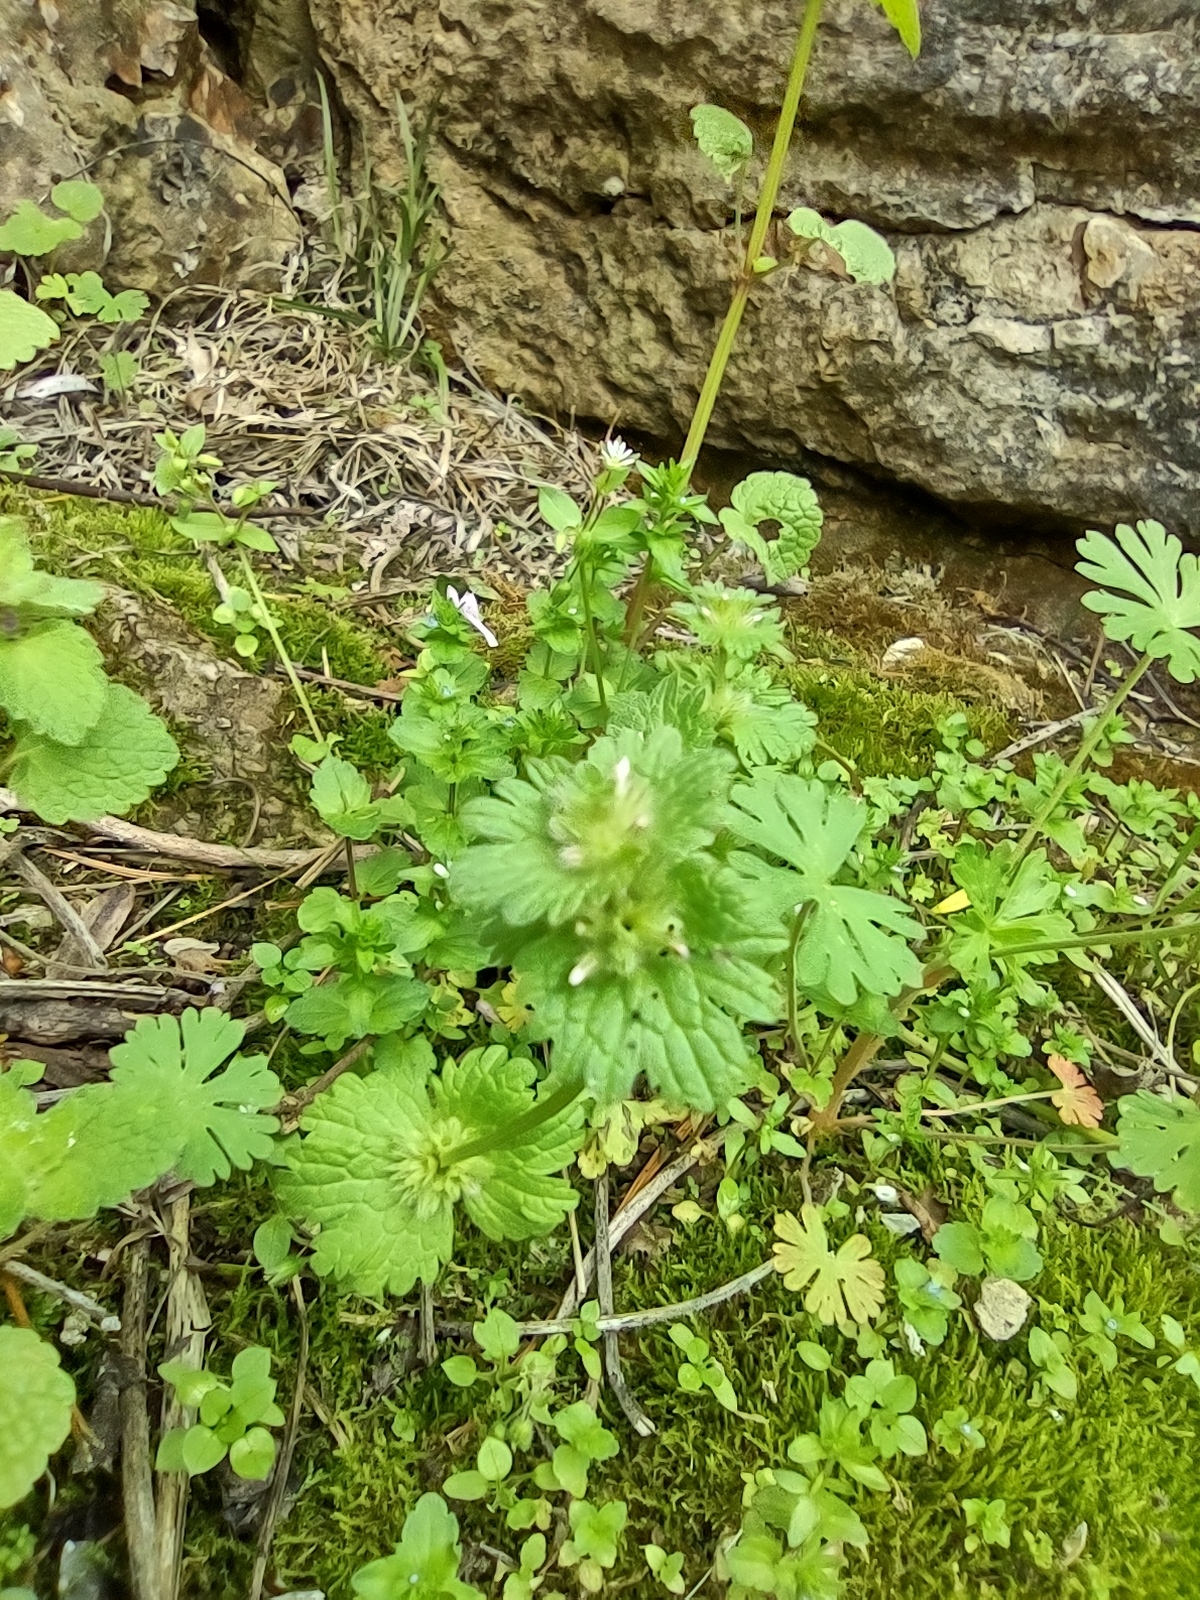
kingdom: Plantae
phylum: Tracheophyta
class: Magnoliopsida
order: Lamiales
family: Lamiaceae
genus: Lamium
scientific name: Lamium amplexicaule
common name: Henbit dead-nettle
